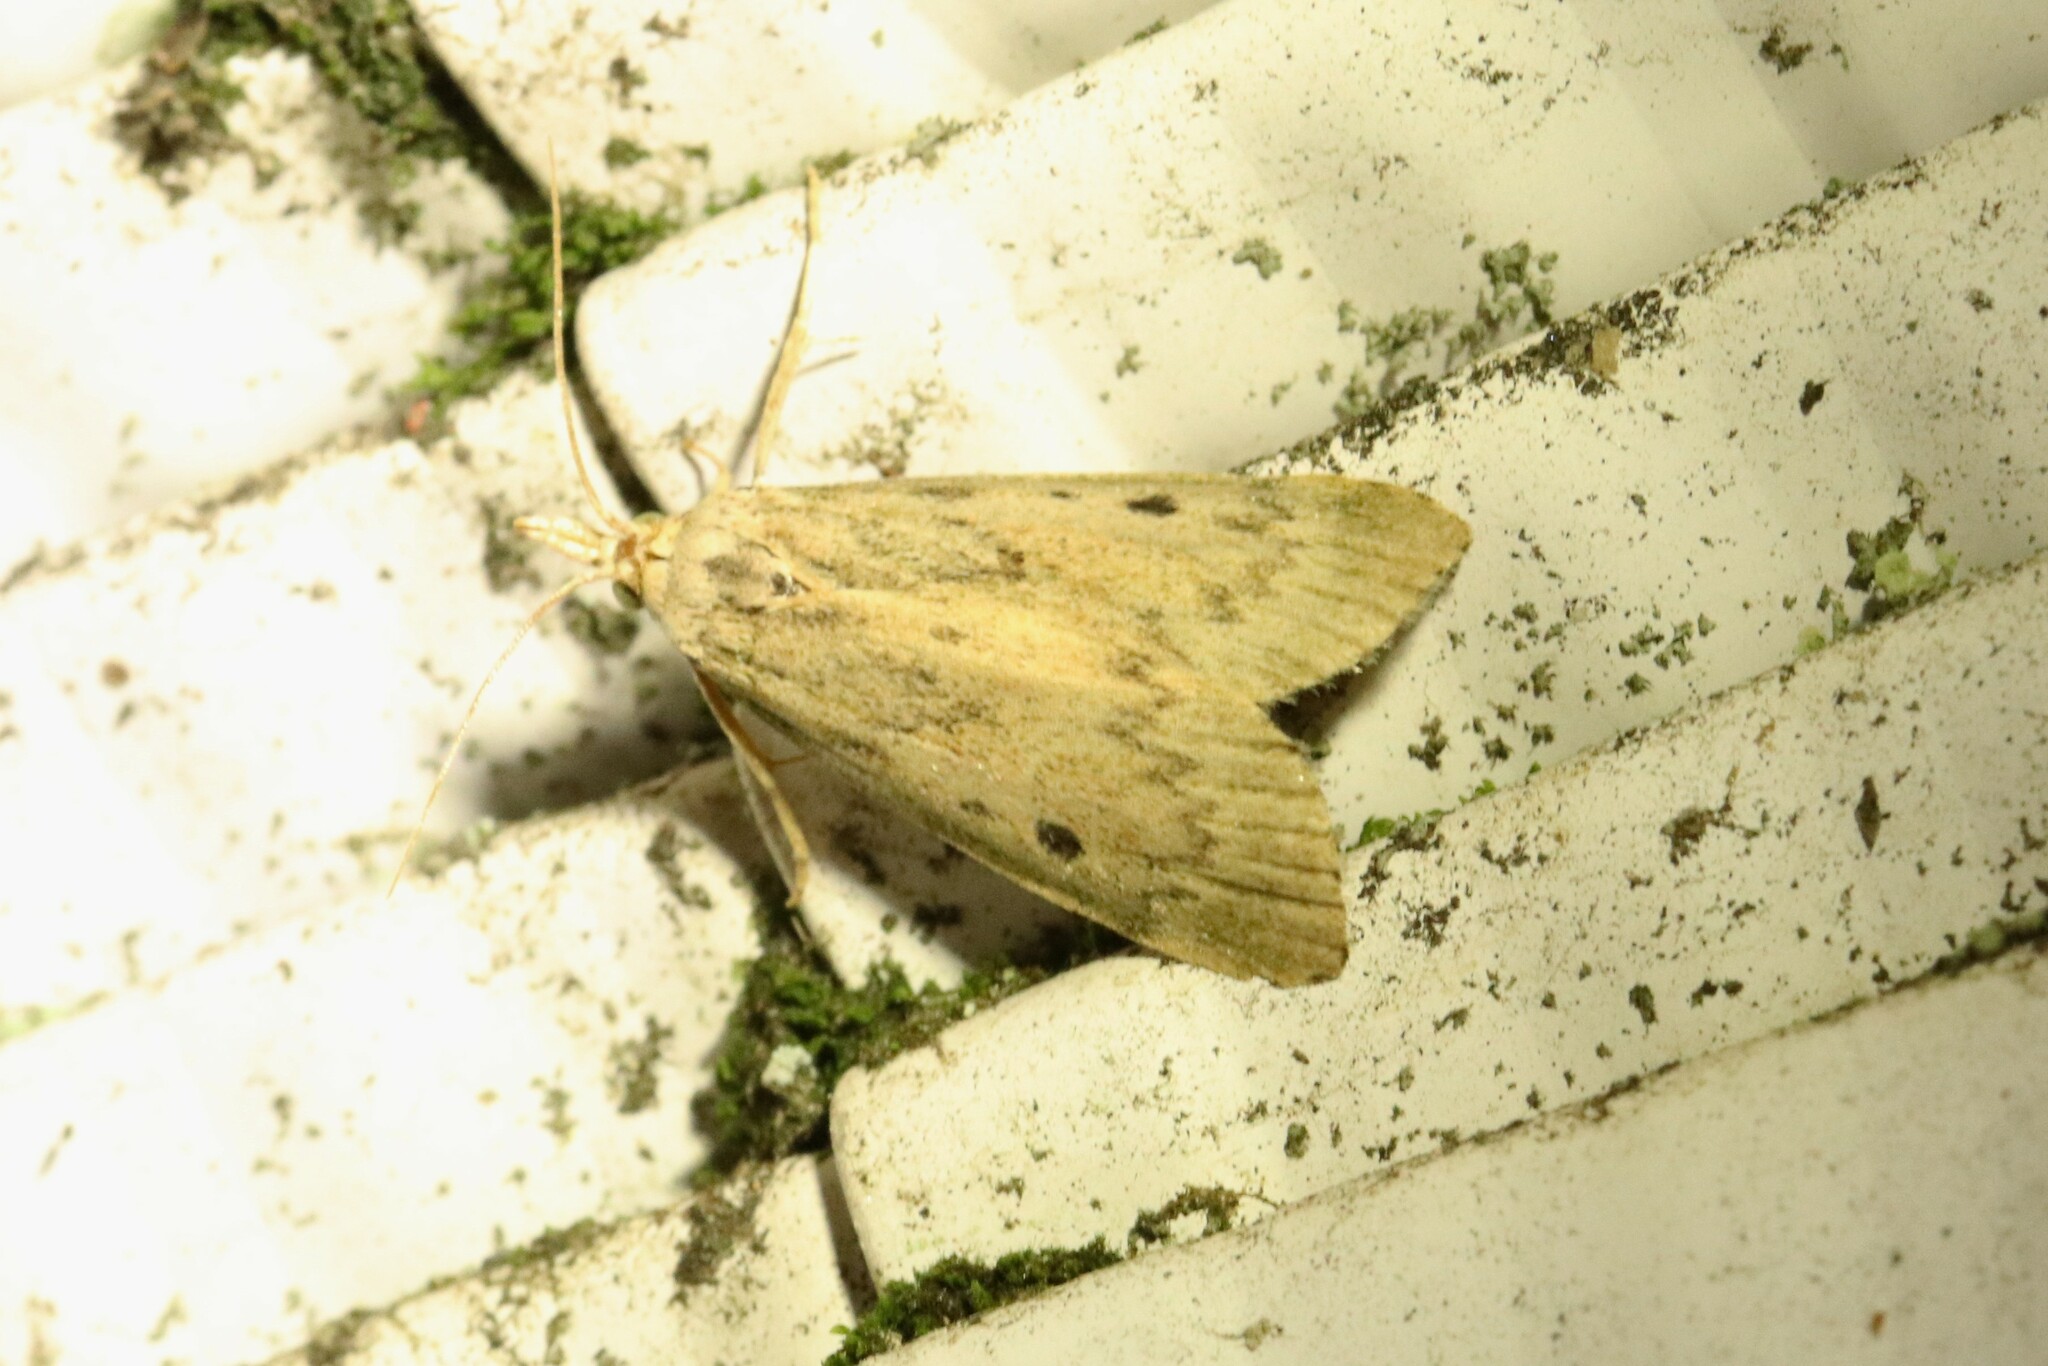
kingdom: Animalia
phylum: Arthropoda
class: Insecta
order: Lepidoptera
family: Pyralidae
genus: Aphomia
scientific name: Aphomia sociella
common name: Bee moth
